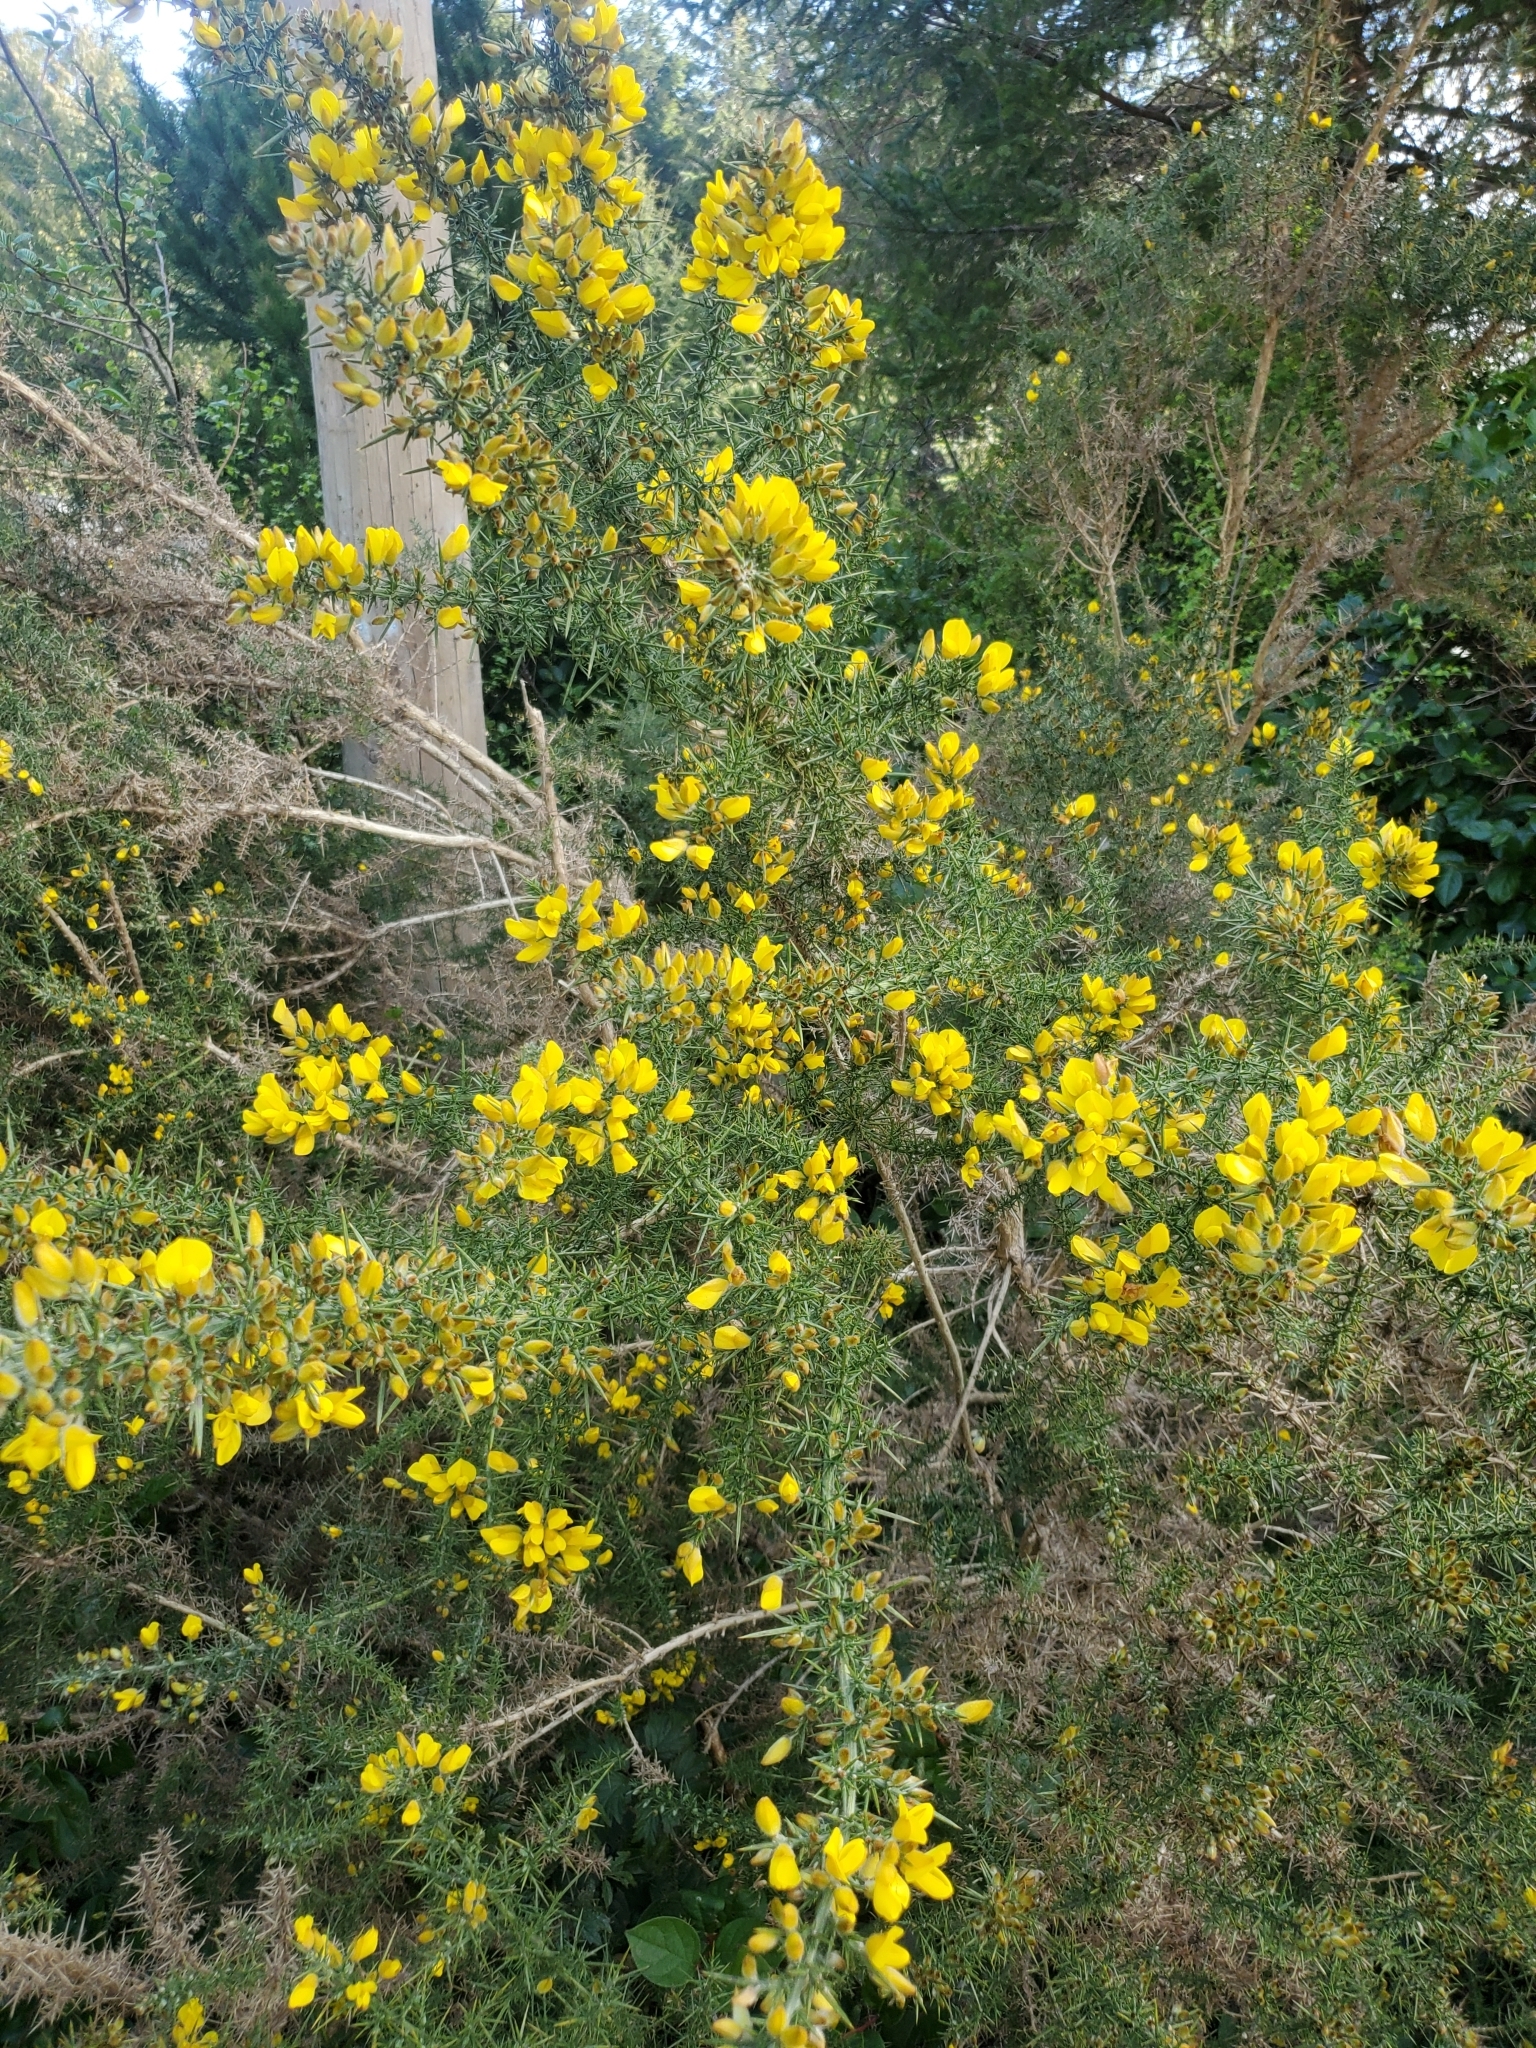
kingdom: Plantae
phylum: Tracheophyta
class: Magnoliopsida
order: Fabales
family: Fabaceae
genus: Ulex
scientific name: Ulex europaeus
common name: Common gorse
